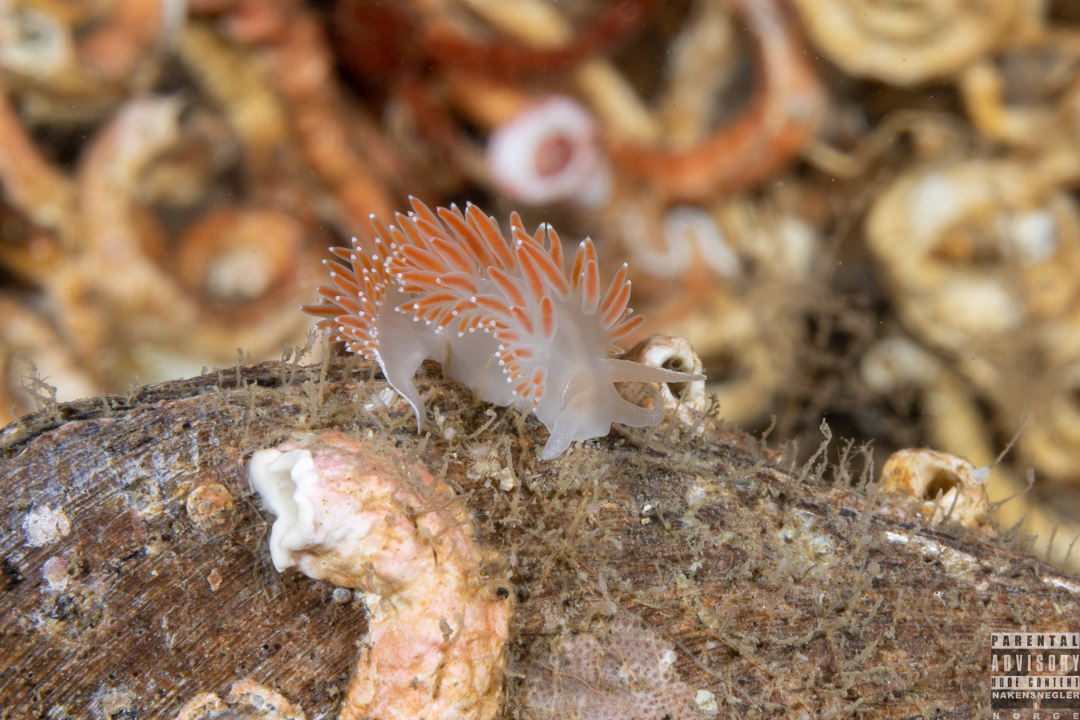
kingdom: Animalia
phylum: Mollusca
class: Gastropoda
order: Nudibranchia
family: Coryphellidae
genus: Coryphella
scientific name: Coryphella verrucosa
